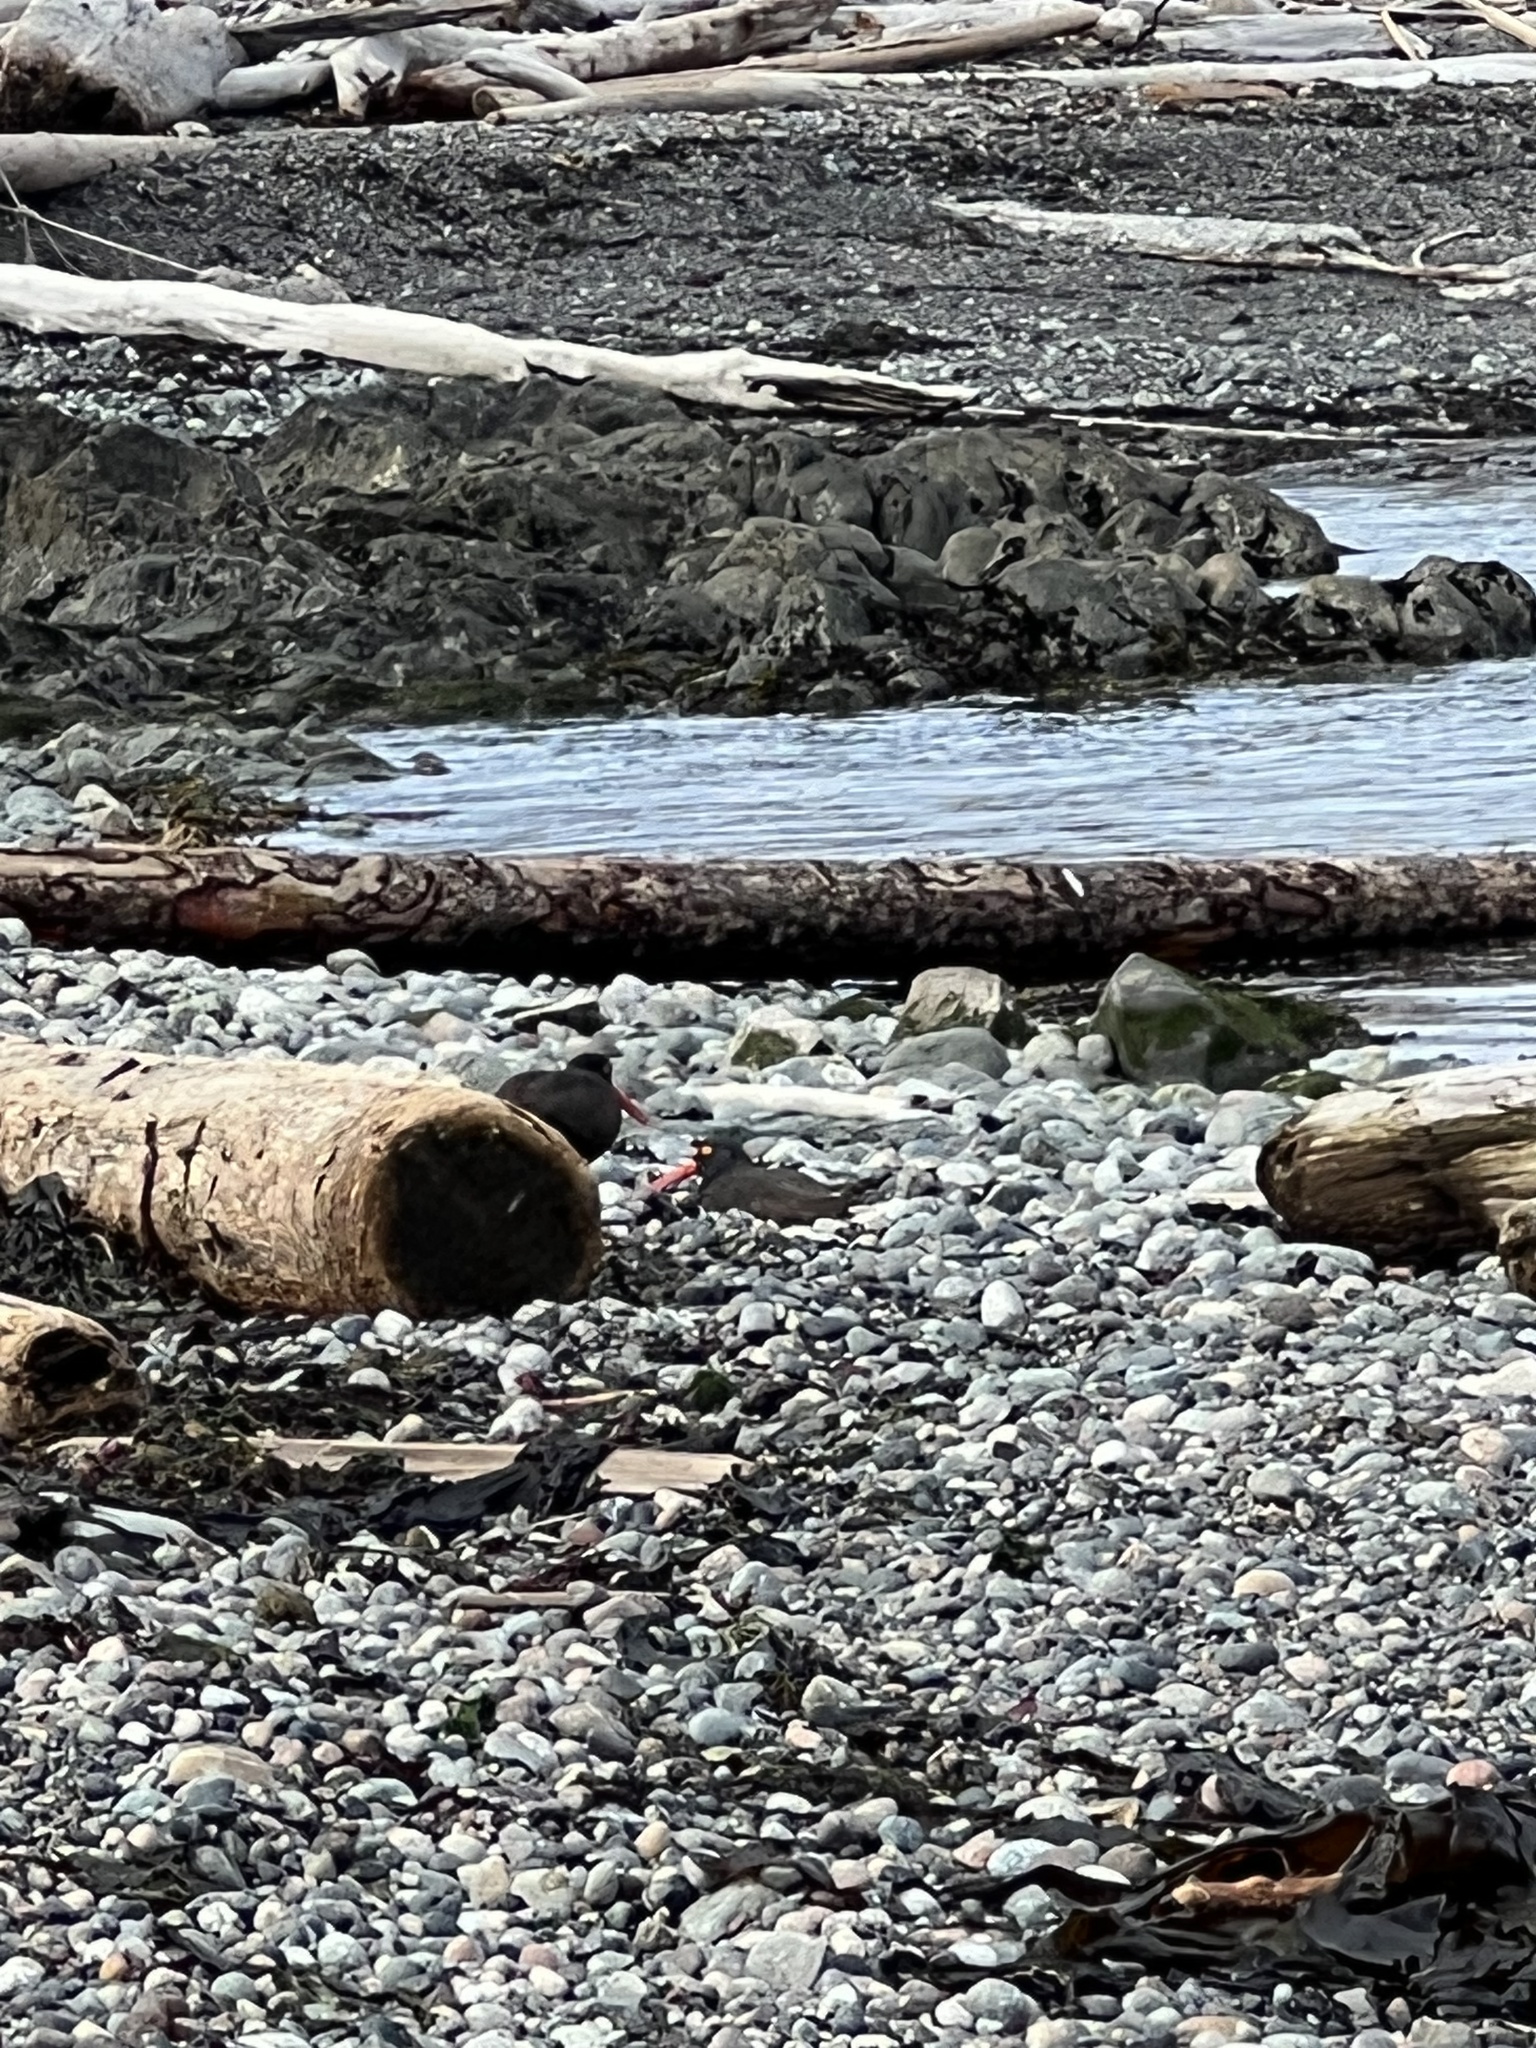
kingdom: Animalia
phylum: Chordata
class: Aves
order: Charadriiformes
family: Haematopodidae
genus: Haematopus
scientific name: Haematopus bachmani
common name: Black oystercatcher
